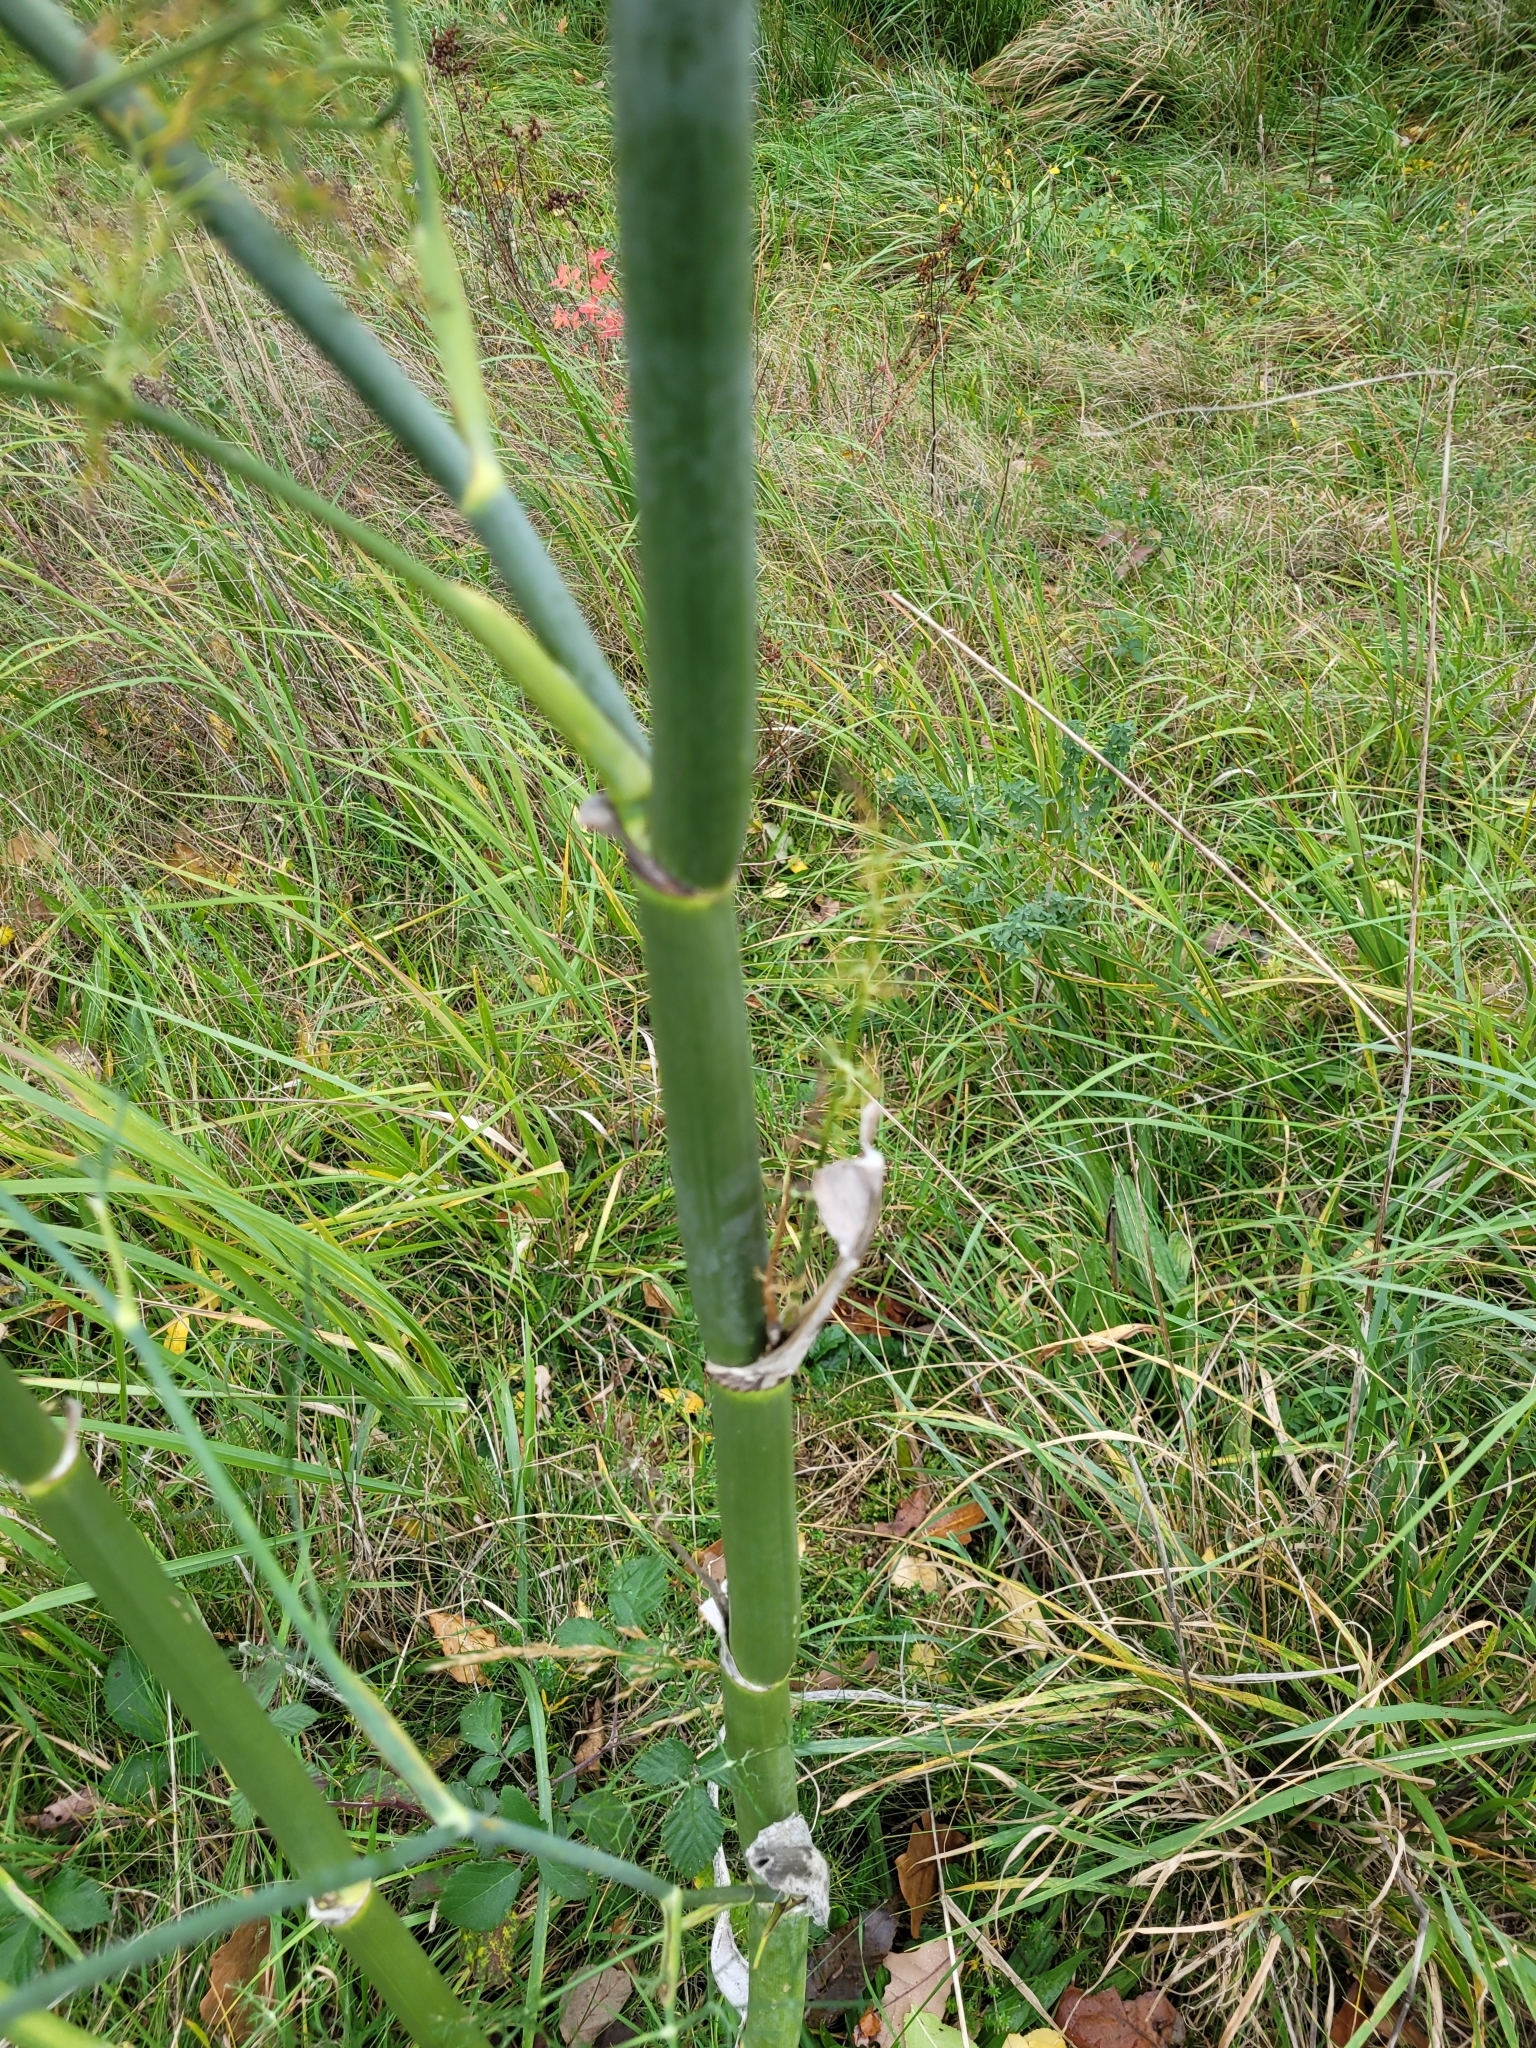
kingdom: Plantae
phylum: Tracheophyta
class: Magnoliopsida
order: Apiales
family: Apiaceae
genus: Foeniculum
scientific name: Foeniculum vulgare
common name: Fennel
